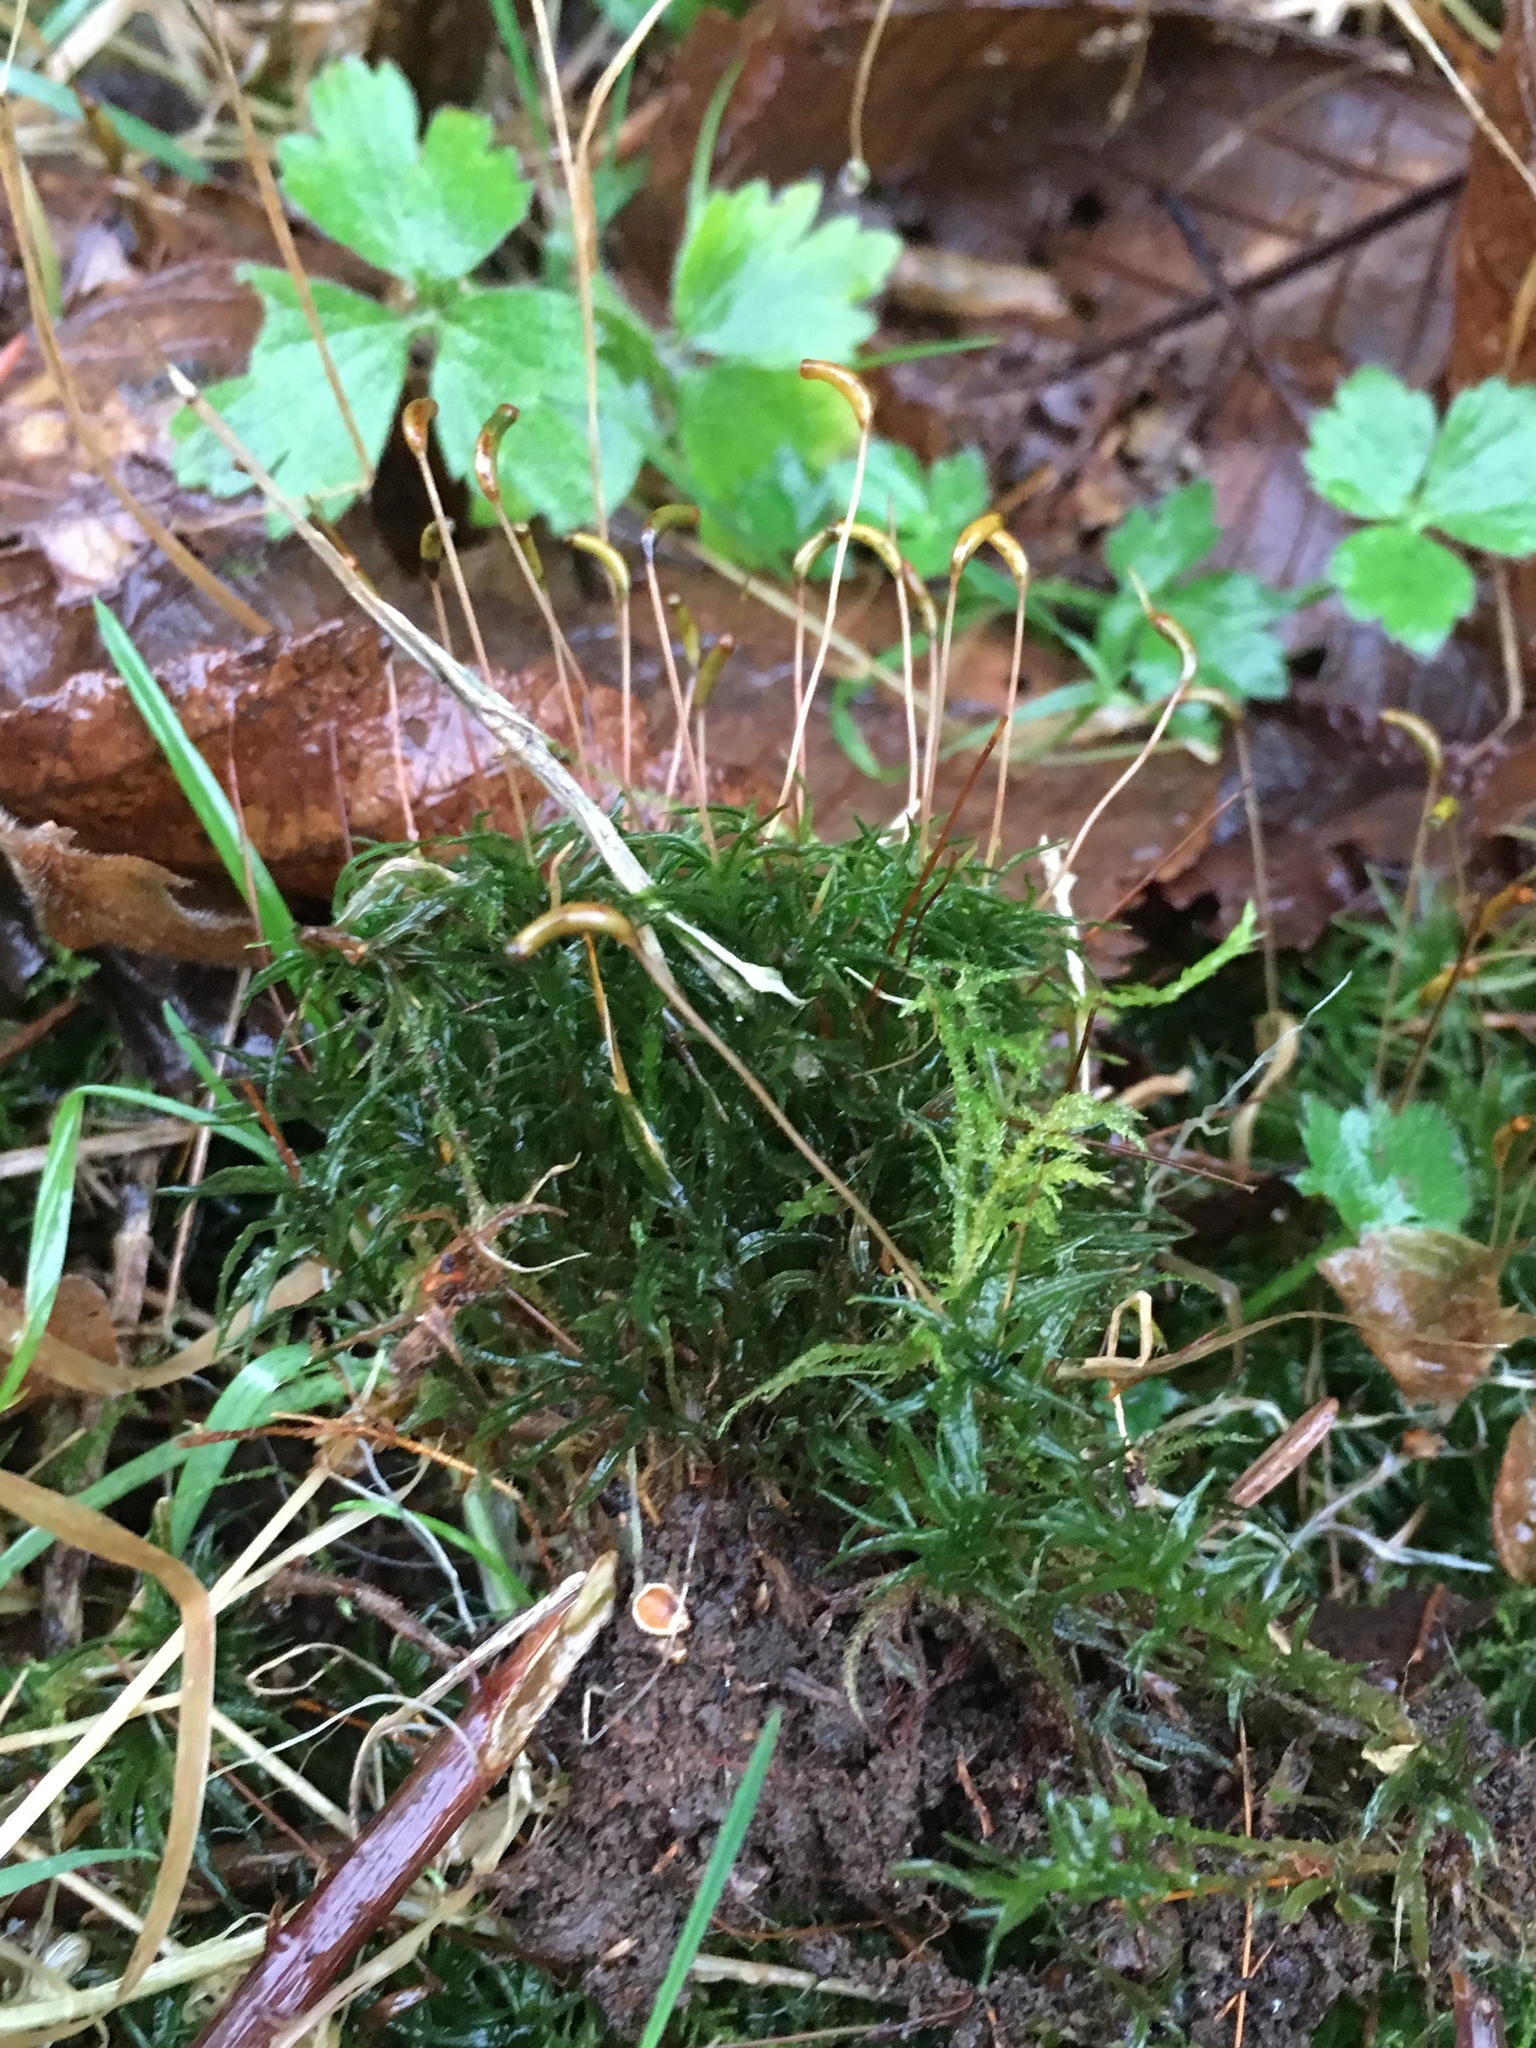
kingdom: Plantae
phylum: Bryophyta
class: Polytrichopsida
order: Polytrichales
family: Polytrichaceae
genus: Atrichum
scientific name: Atrichum undulatum
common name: Common smoothcap
